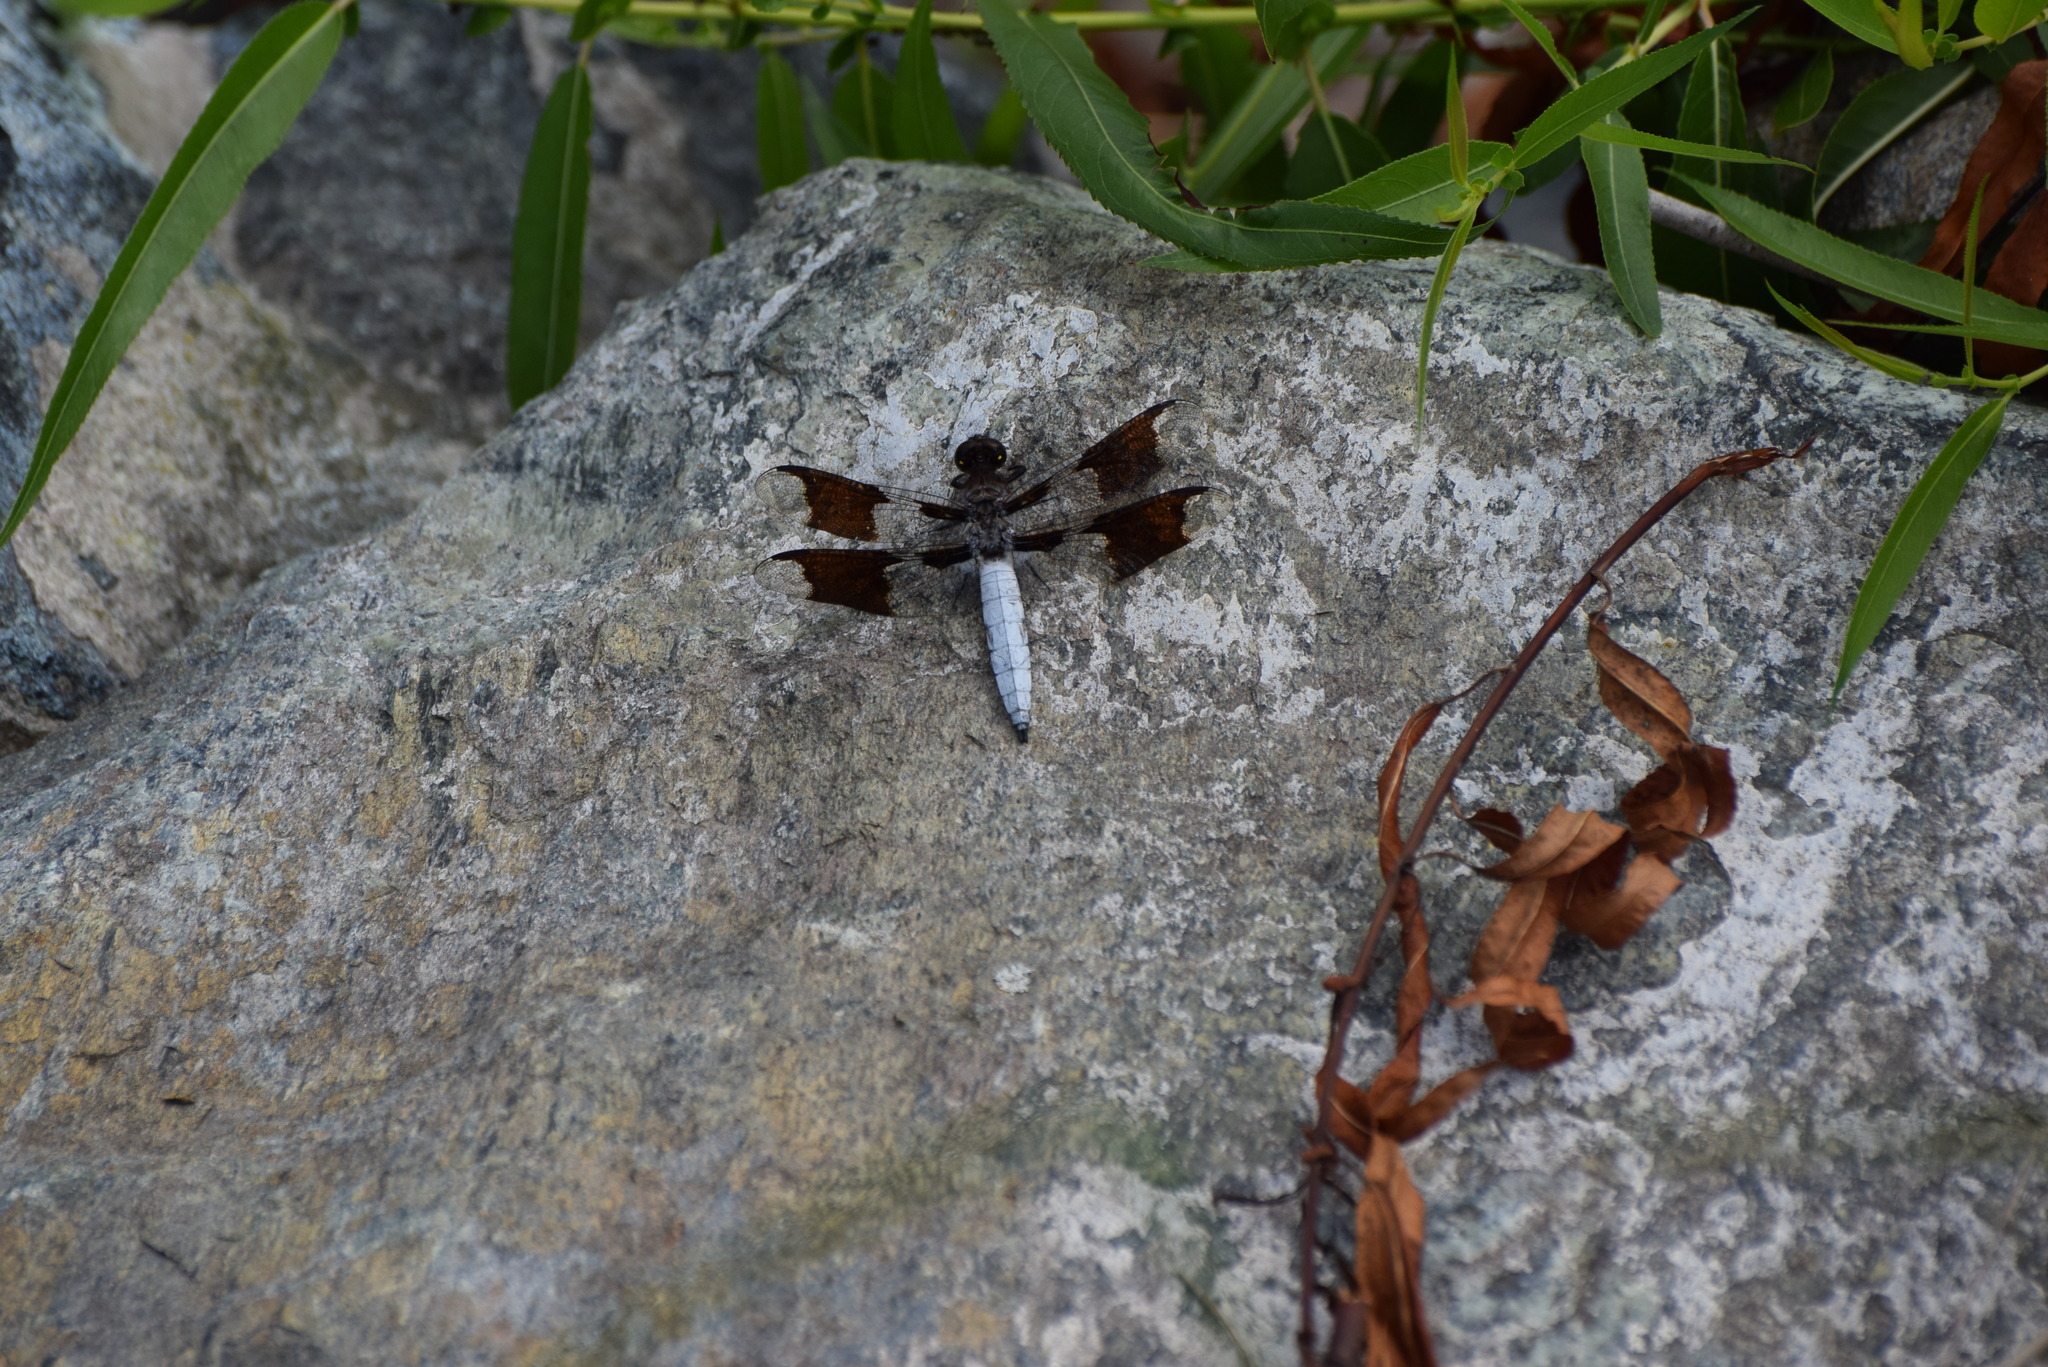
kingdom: Animalia
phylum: Arthropoda
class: Insecta
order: Odonata
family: Libellulidae
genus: Plathemis
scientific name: Plathemis lydia
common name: Common whitetail
